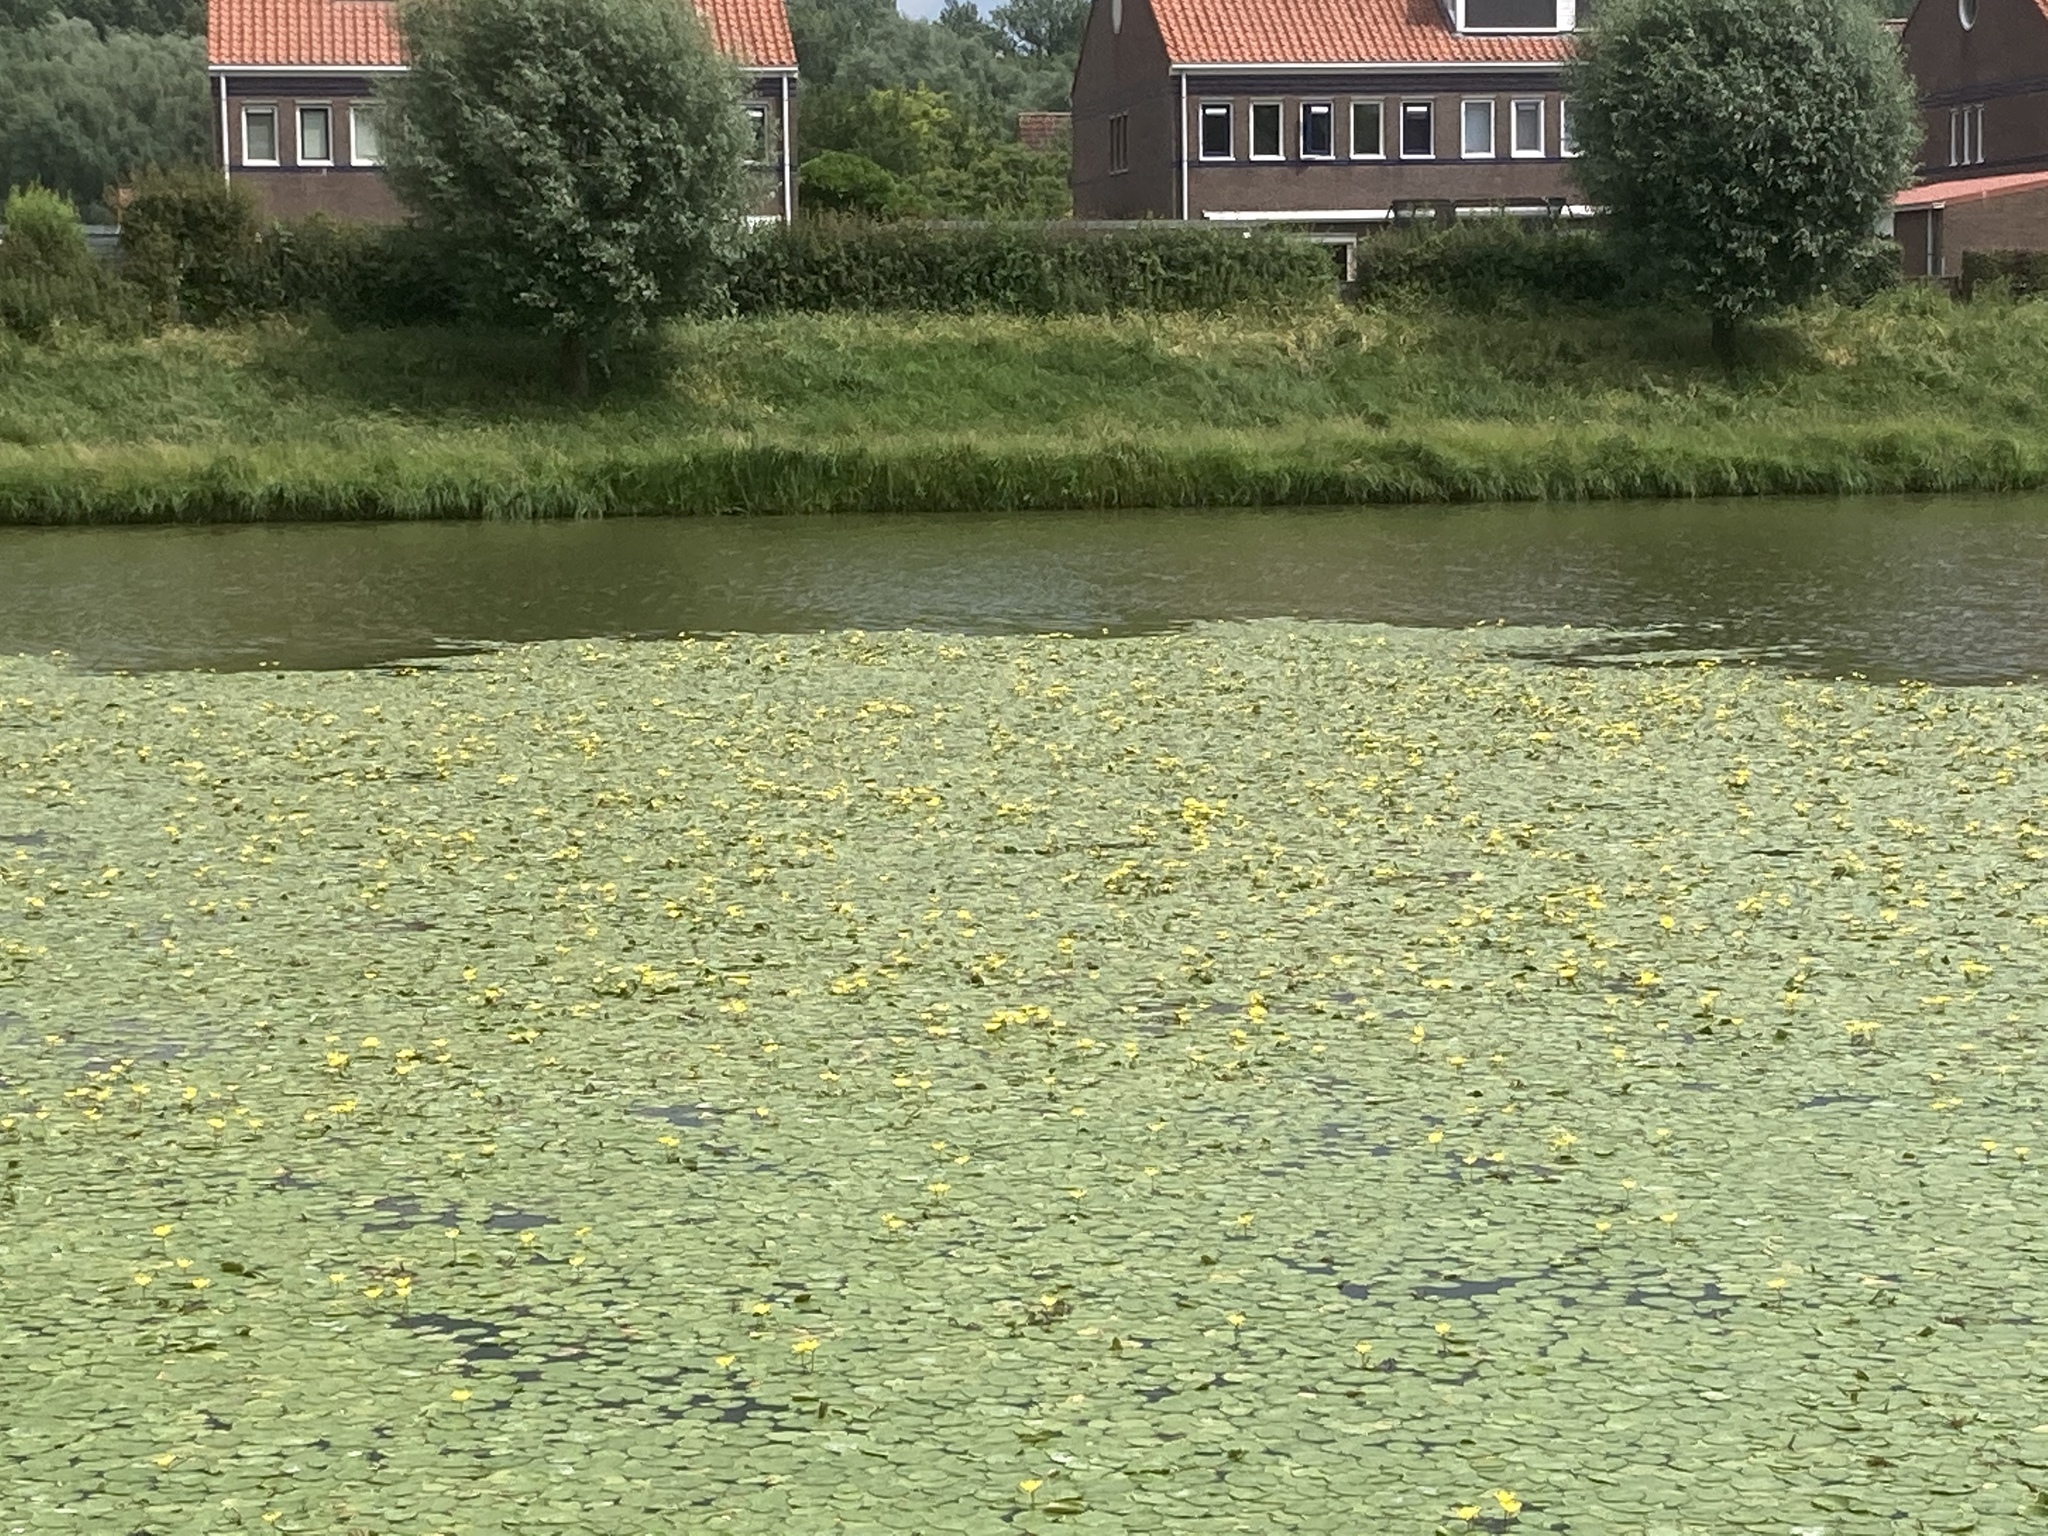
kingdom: Plantae
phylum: Tracheophyta
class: Magnoliopsida
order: Asterales
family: Menyanthaceae
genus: Nymphoides
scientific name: Nymphoides peltata
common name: Fringed water-lily
